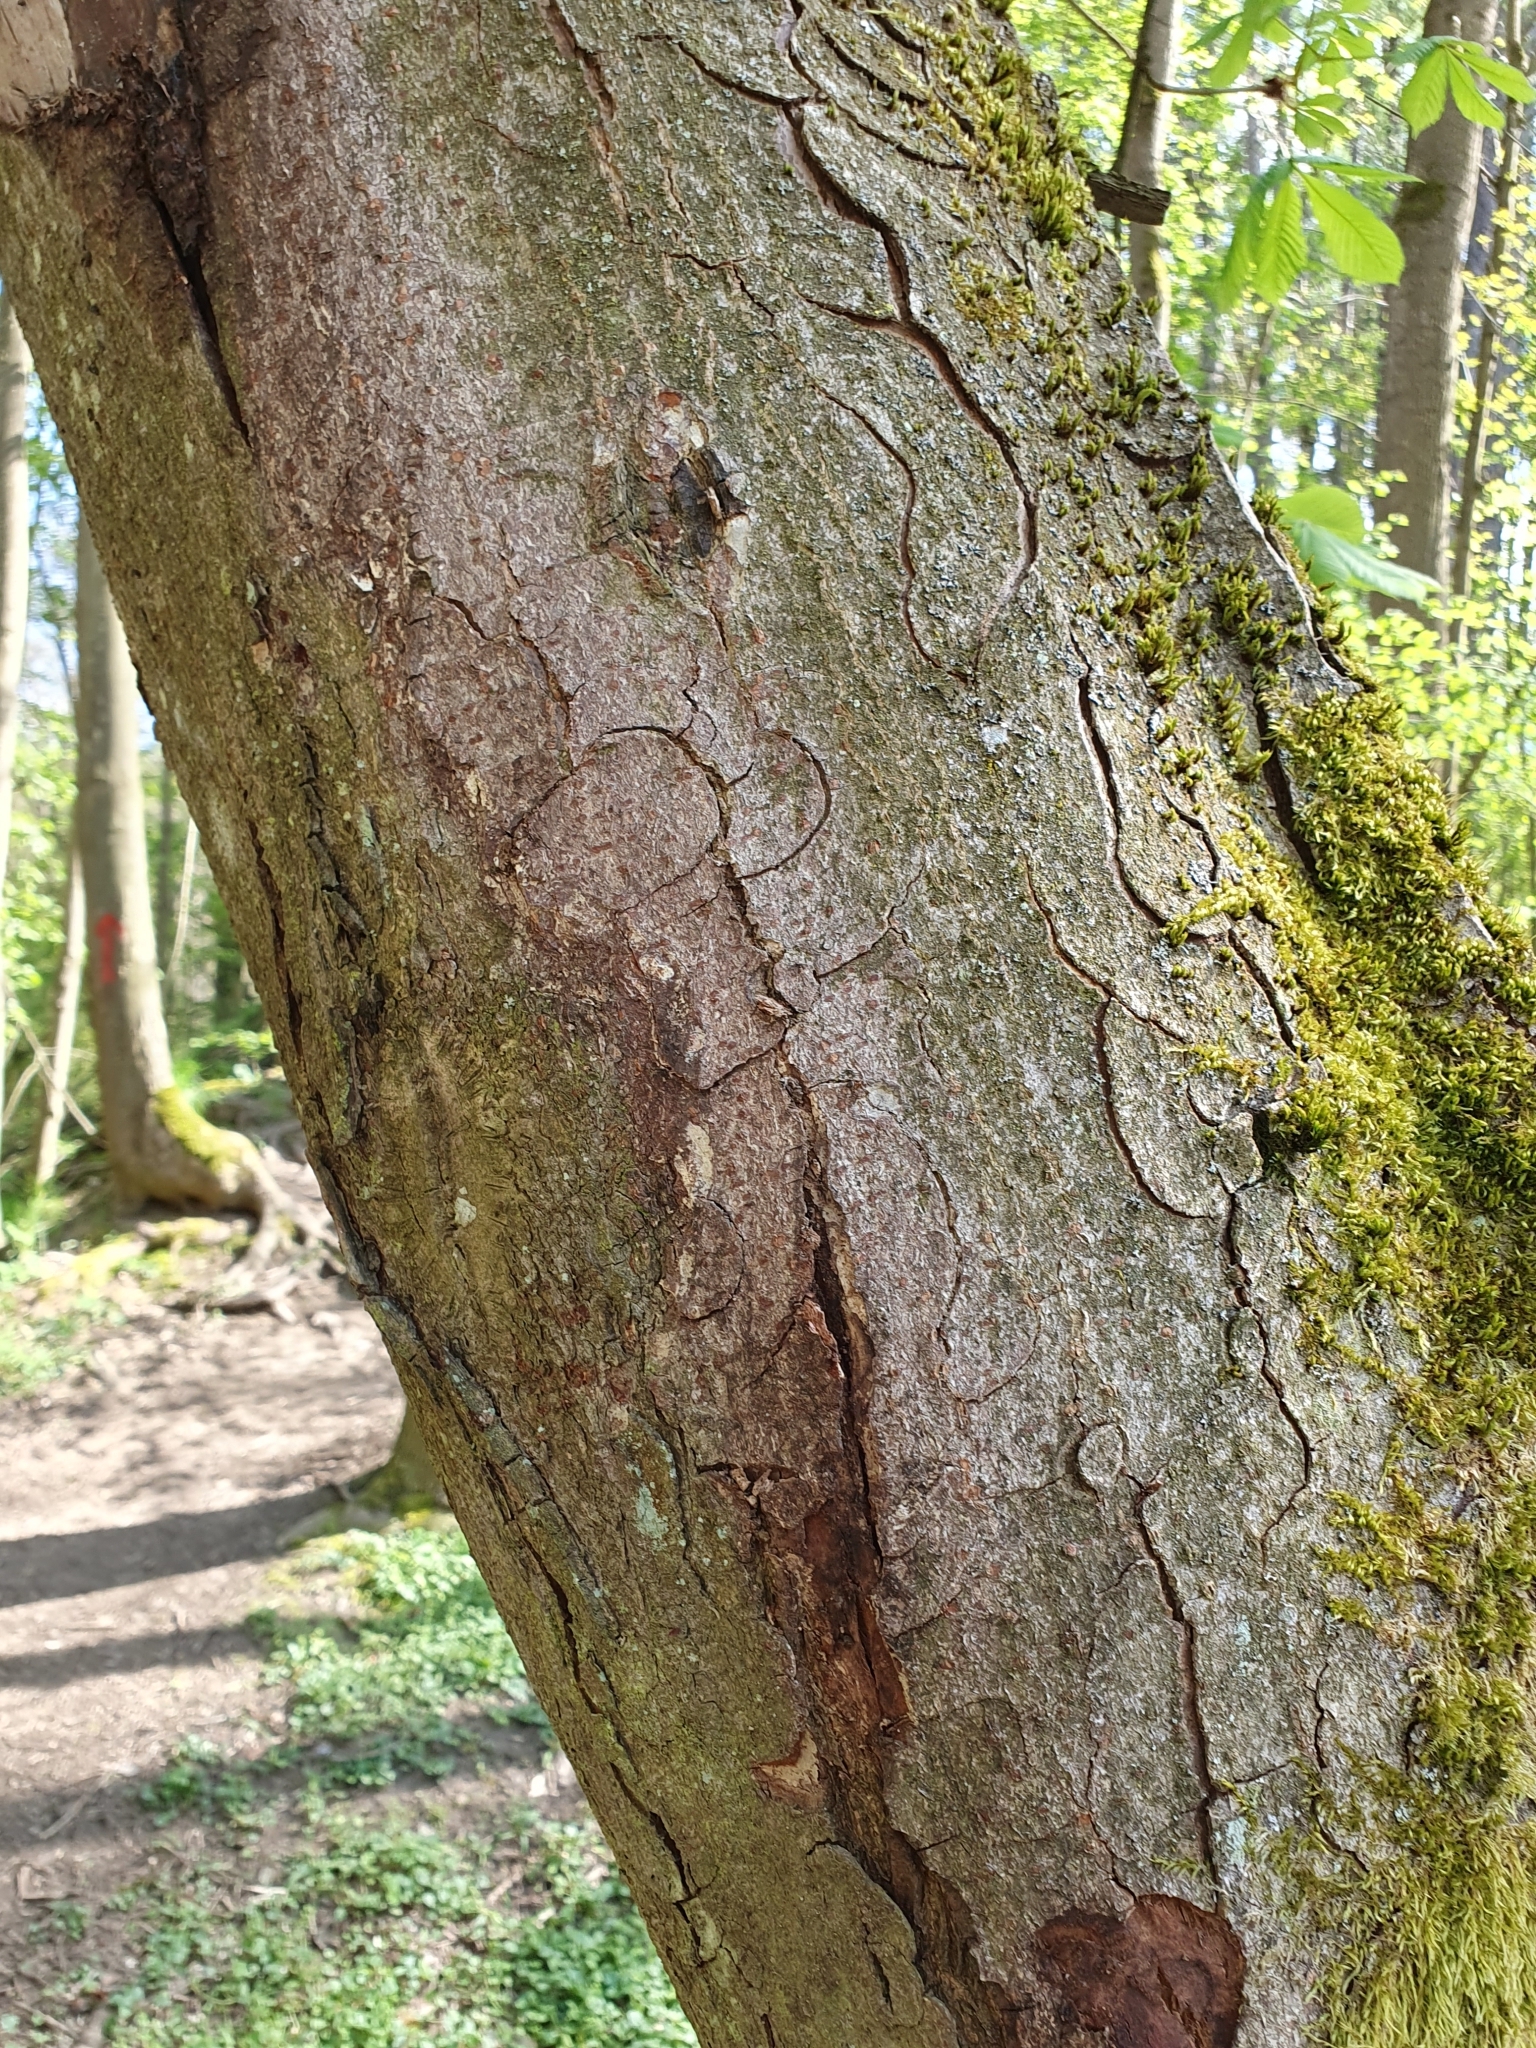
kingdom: Plantae
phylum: Tracheophyta
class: Magnoliopsida
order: Sapindales
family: Sapindaceae
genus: Aesculus
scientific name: Aesculus hippocastanum
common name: Horse-chestnut
